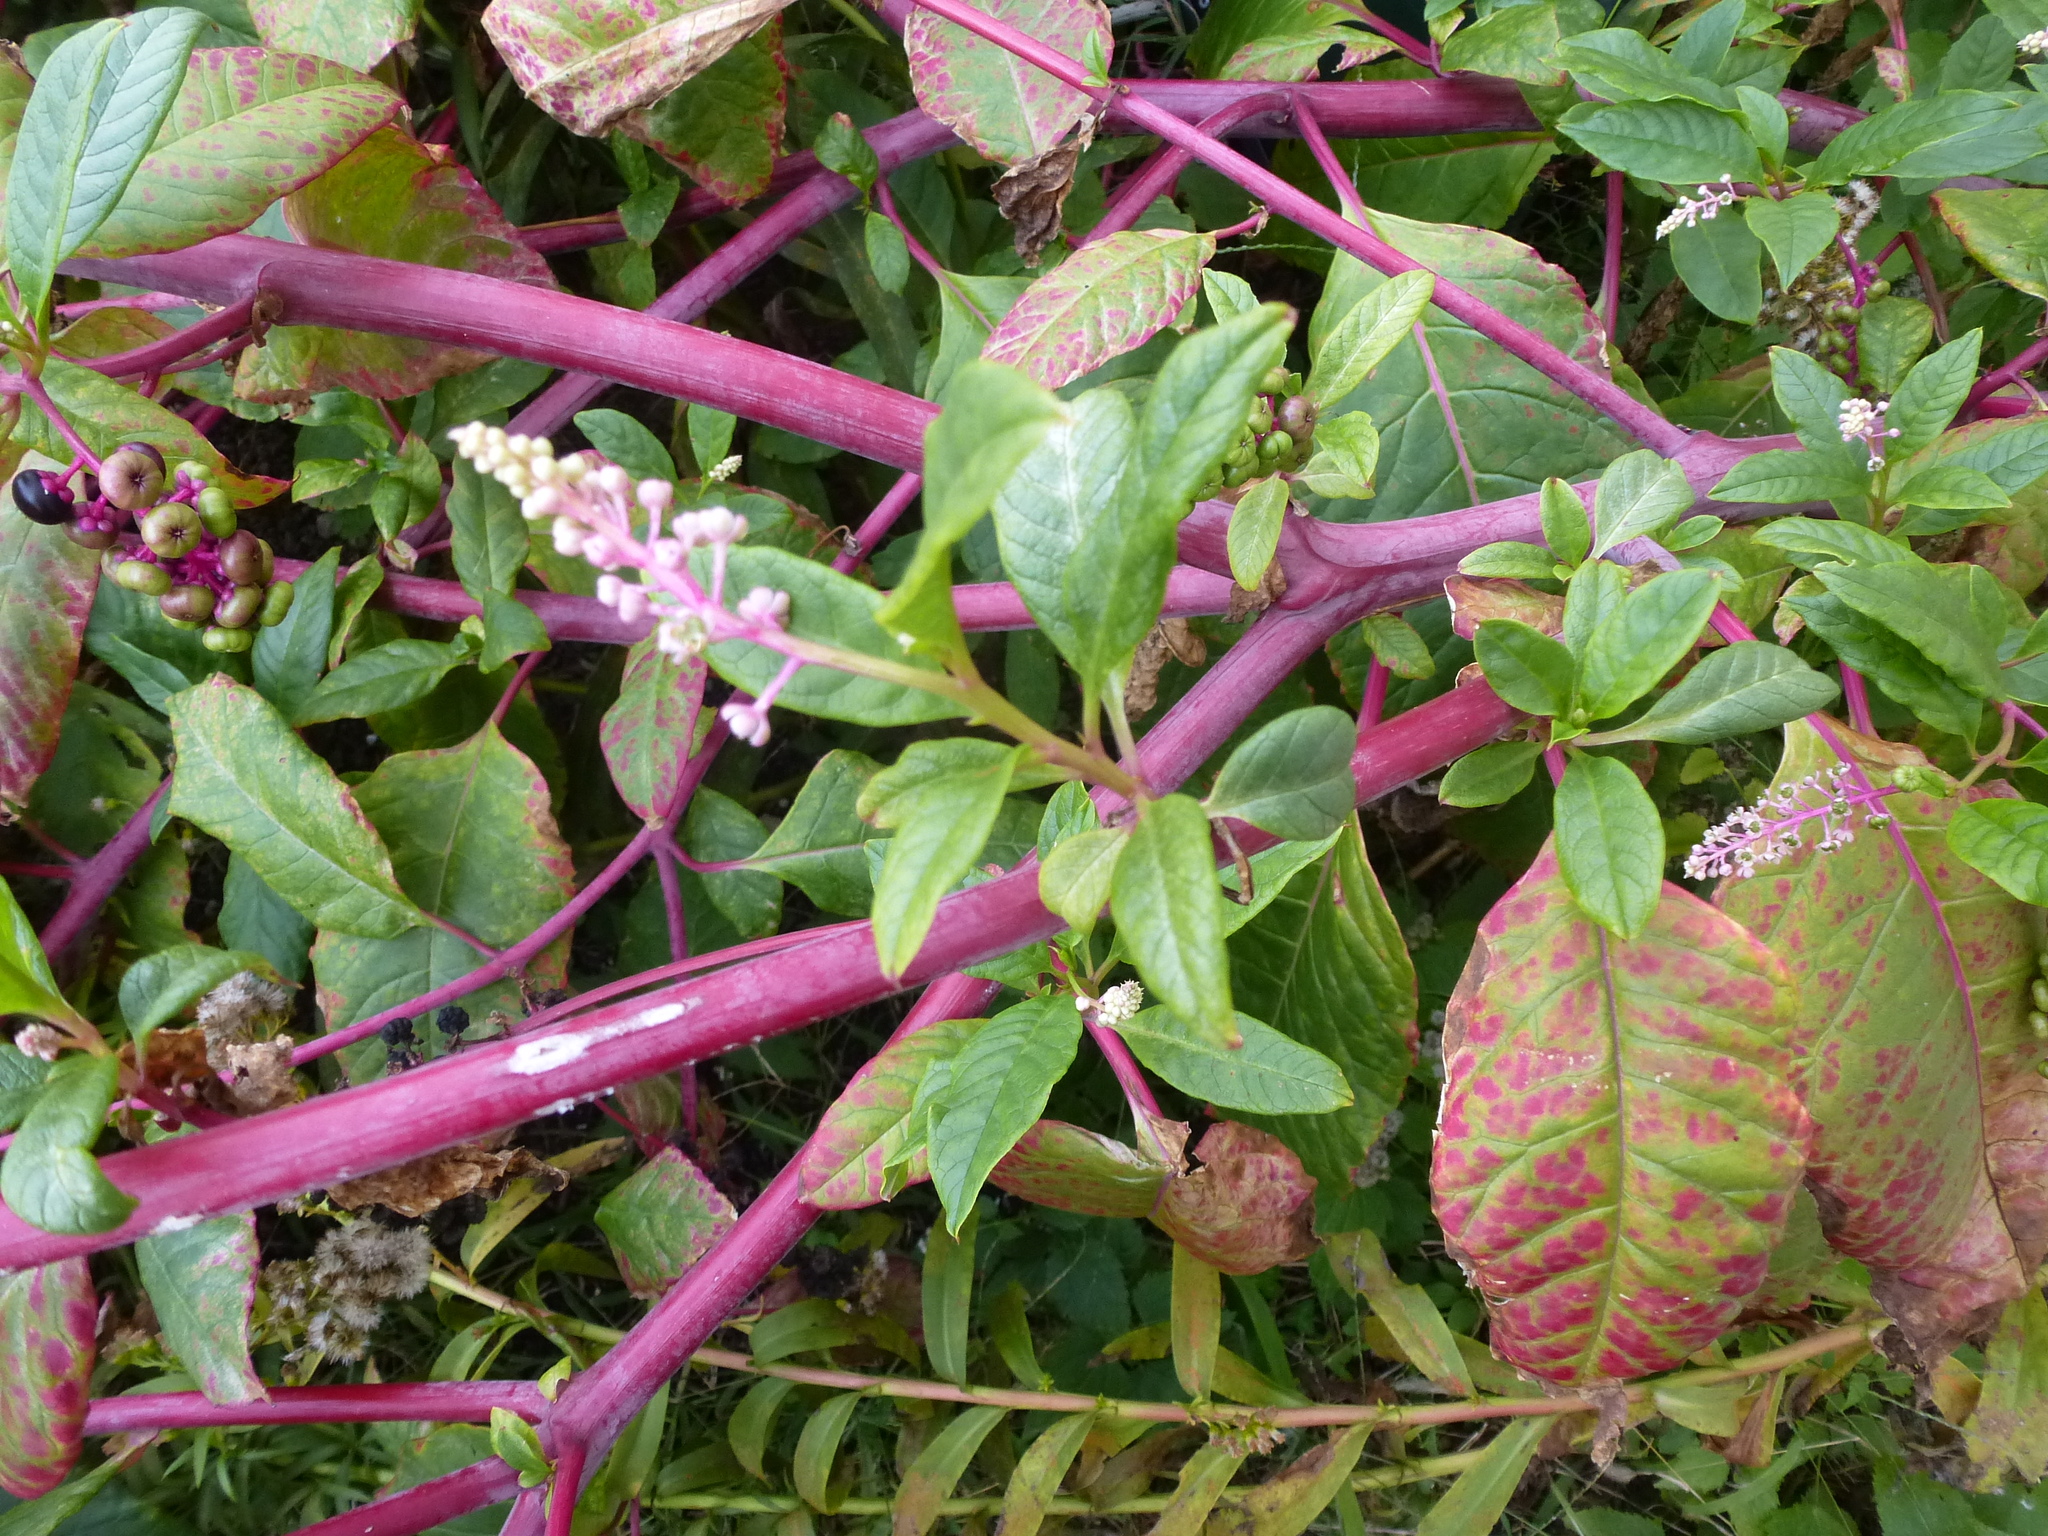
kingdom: Plantae
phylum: Tracheophyta
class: Magnoliopsida
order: Caryophyllales
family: Phytolaccaceae
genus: Phytolacca
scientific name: Phytolacca americana
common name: American pokeweed
